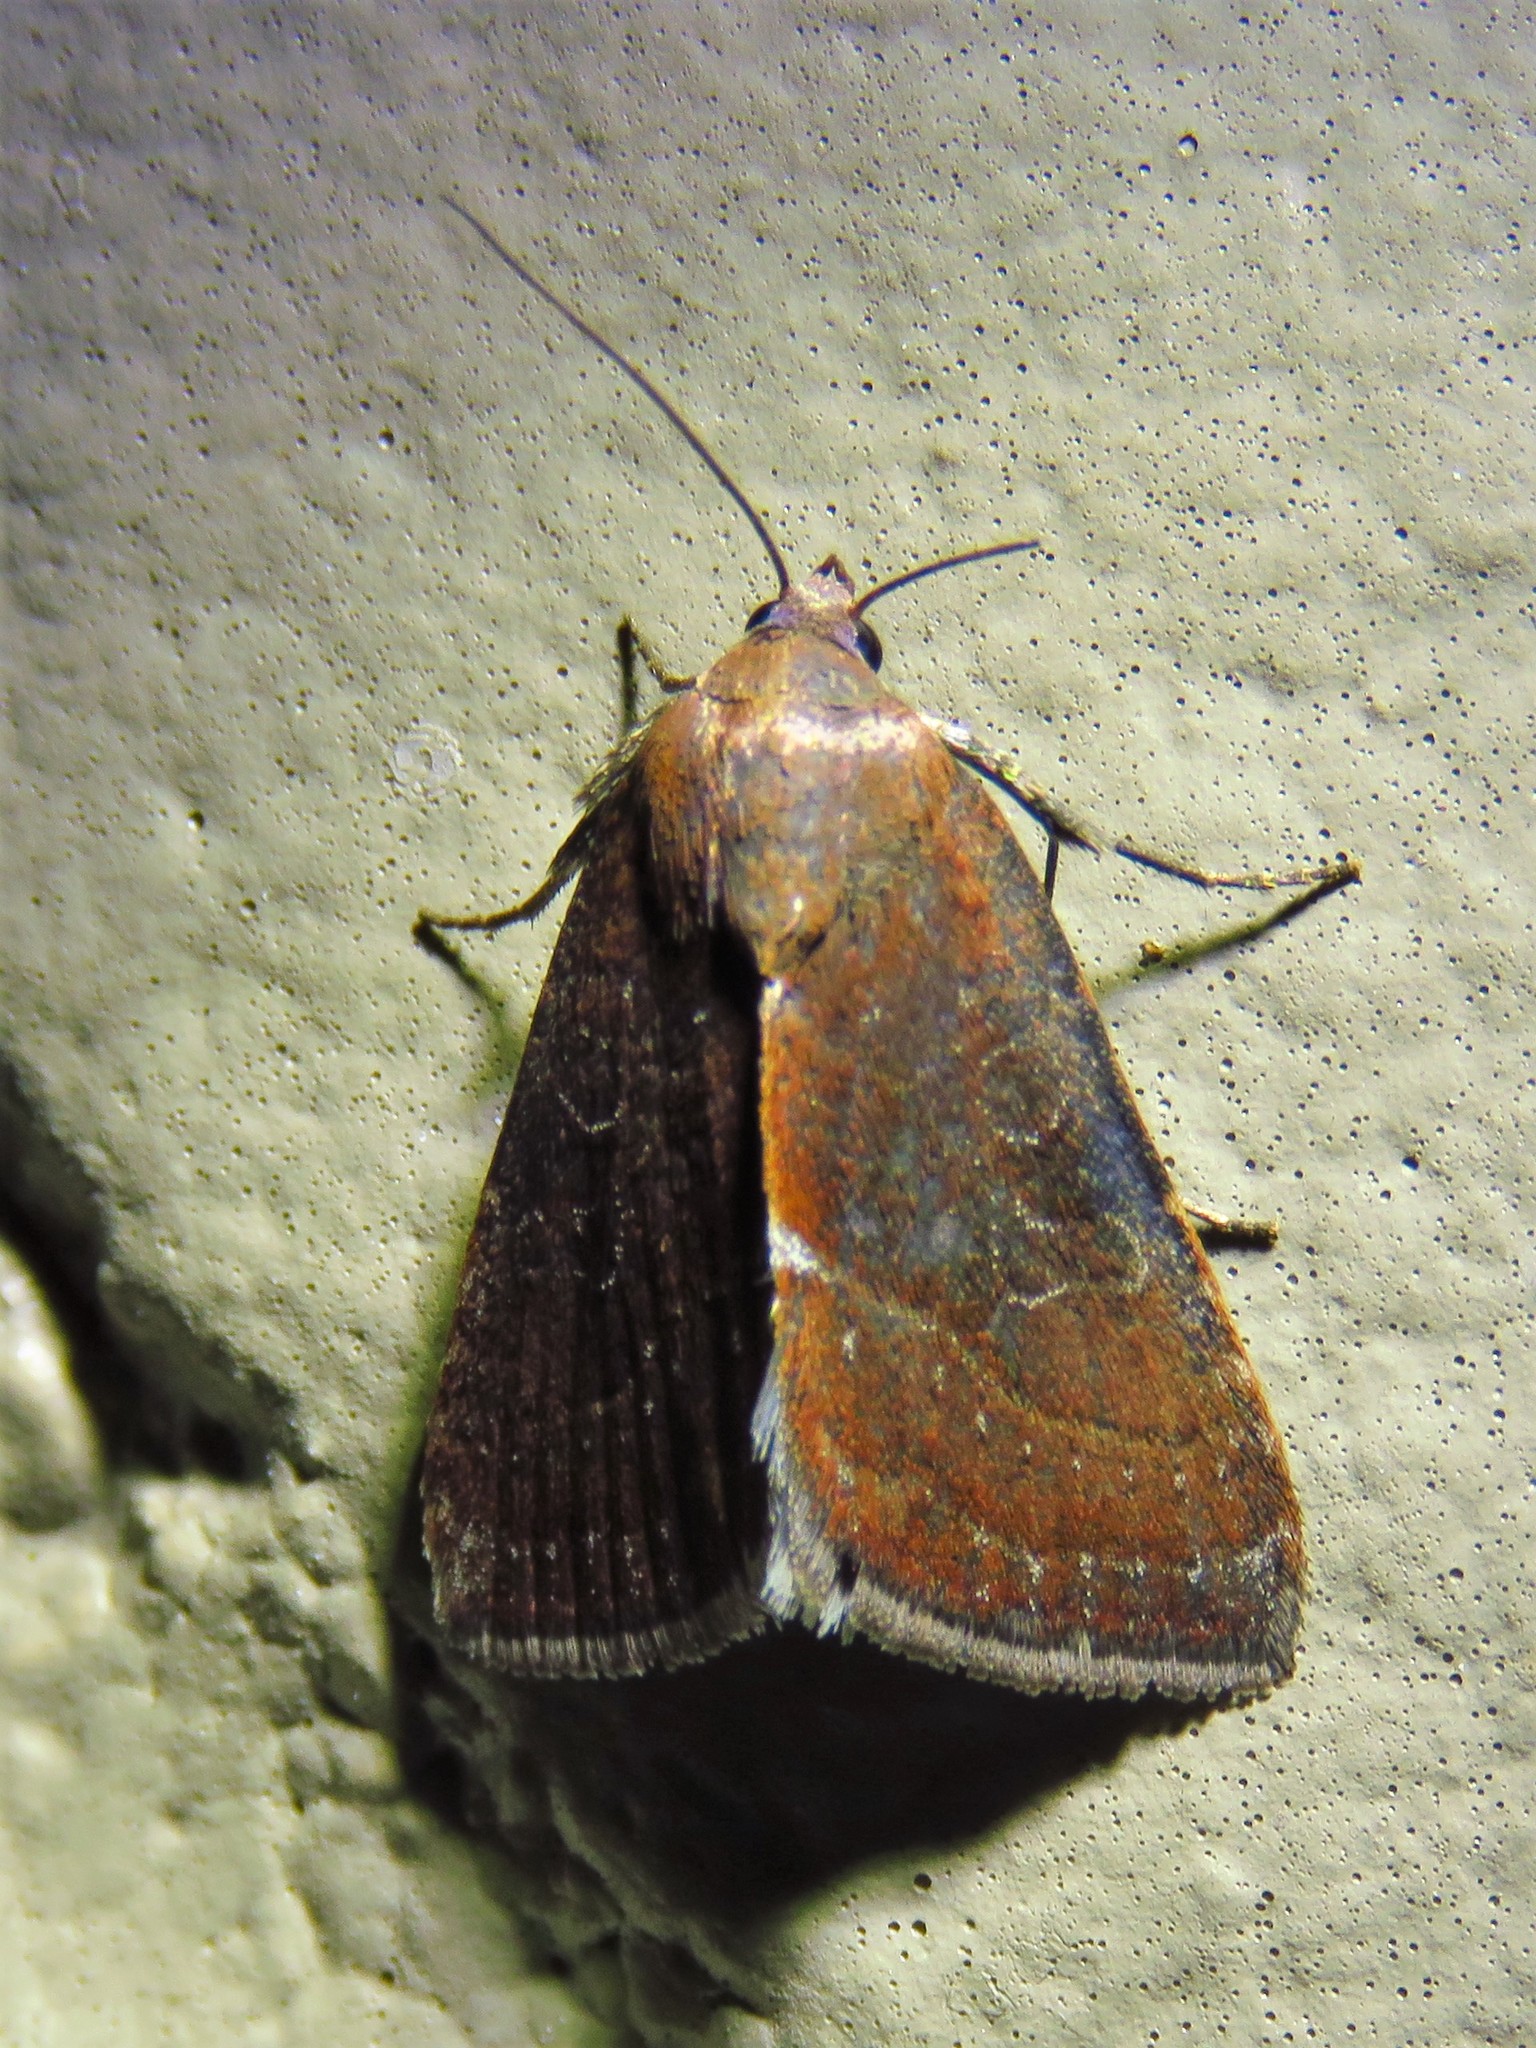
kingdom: Animalia
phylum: Arthropoda
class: Insecta
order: Lepidoptera
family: Noctuidae
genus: Galgula
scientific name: Galgula partita
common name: Wedgeling
